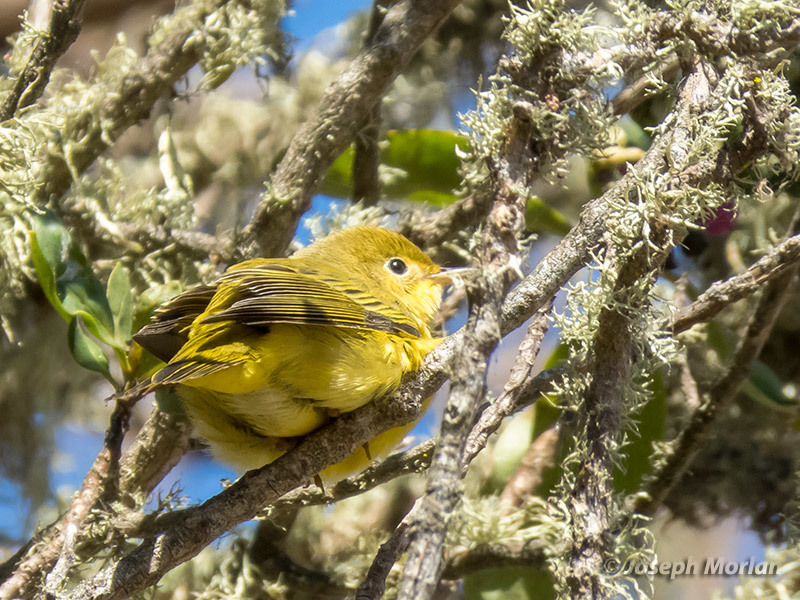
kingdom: Animalia
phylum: Chordata
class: Aves
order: Passeriformes
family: Parulidae
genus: Setophaga
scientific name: Setophaga petechia
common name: Yellow warbler
